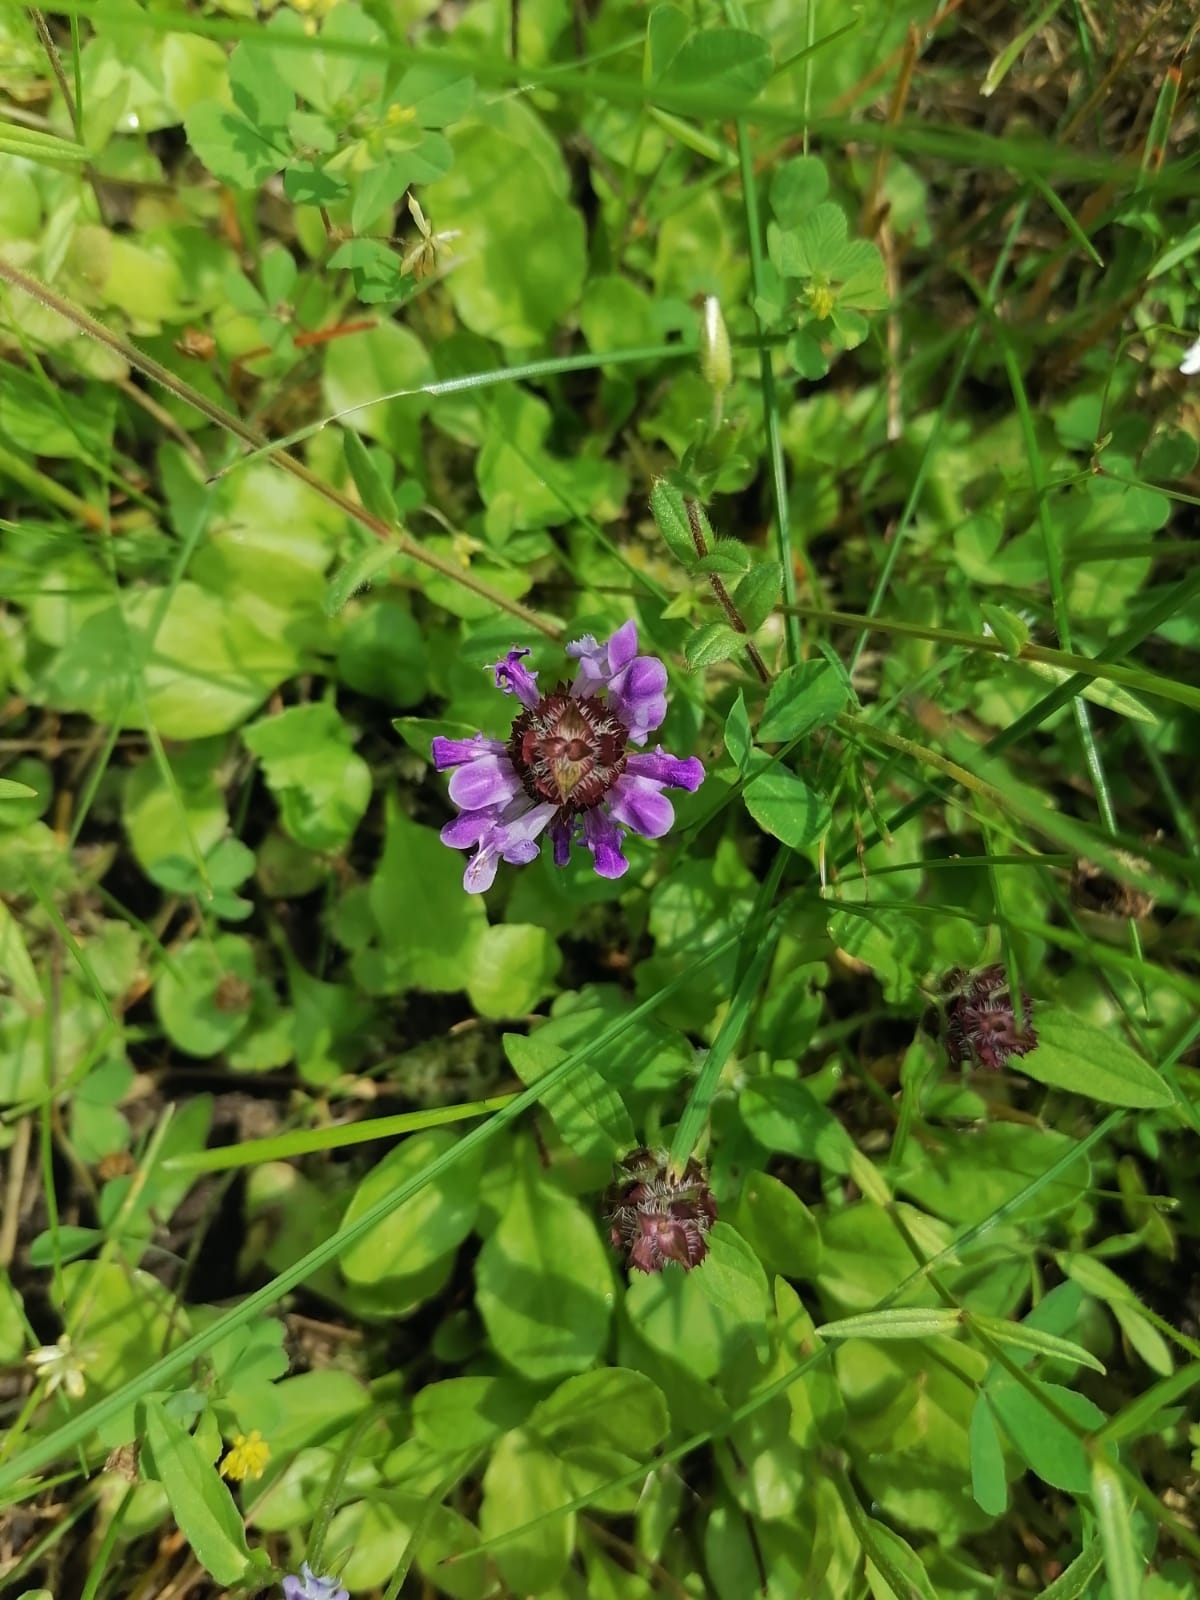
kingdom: Plantae
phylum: Tracheophyta
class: Magnoliopsida
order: Lamiales
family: Lamiaceae
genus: Prunella
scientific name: Prunella vulgaris
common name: Heal-all
